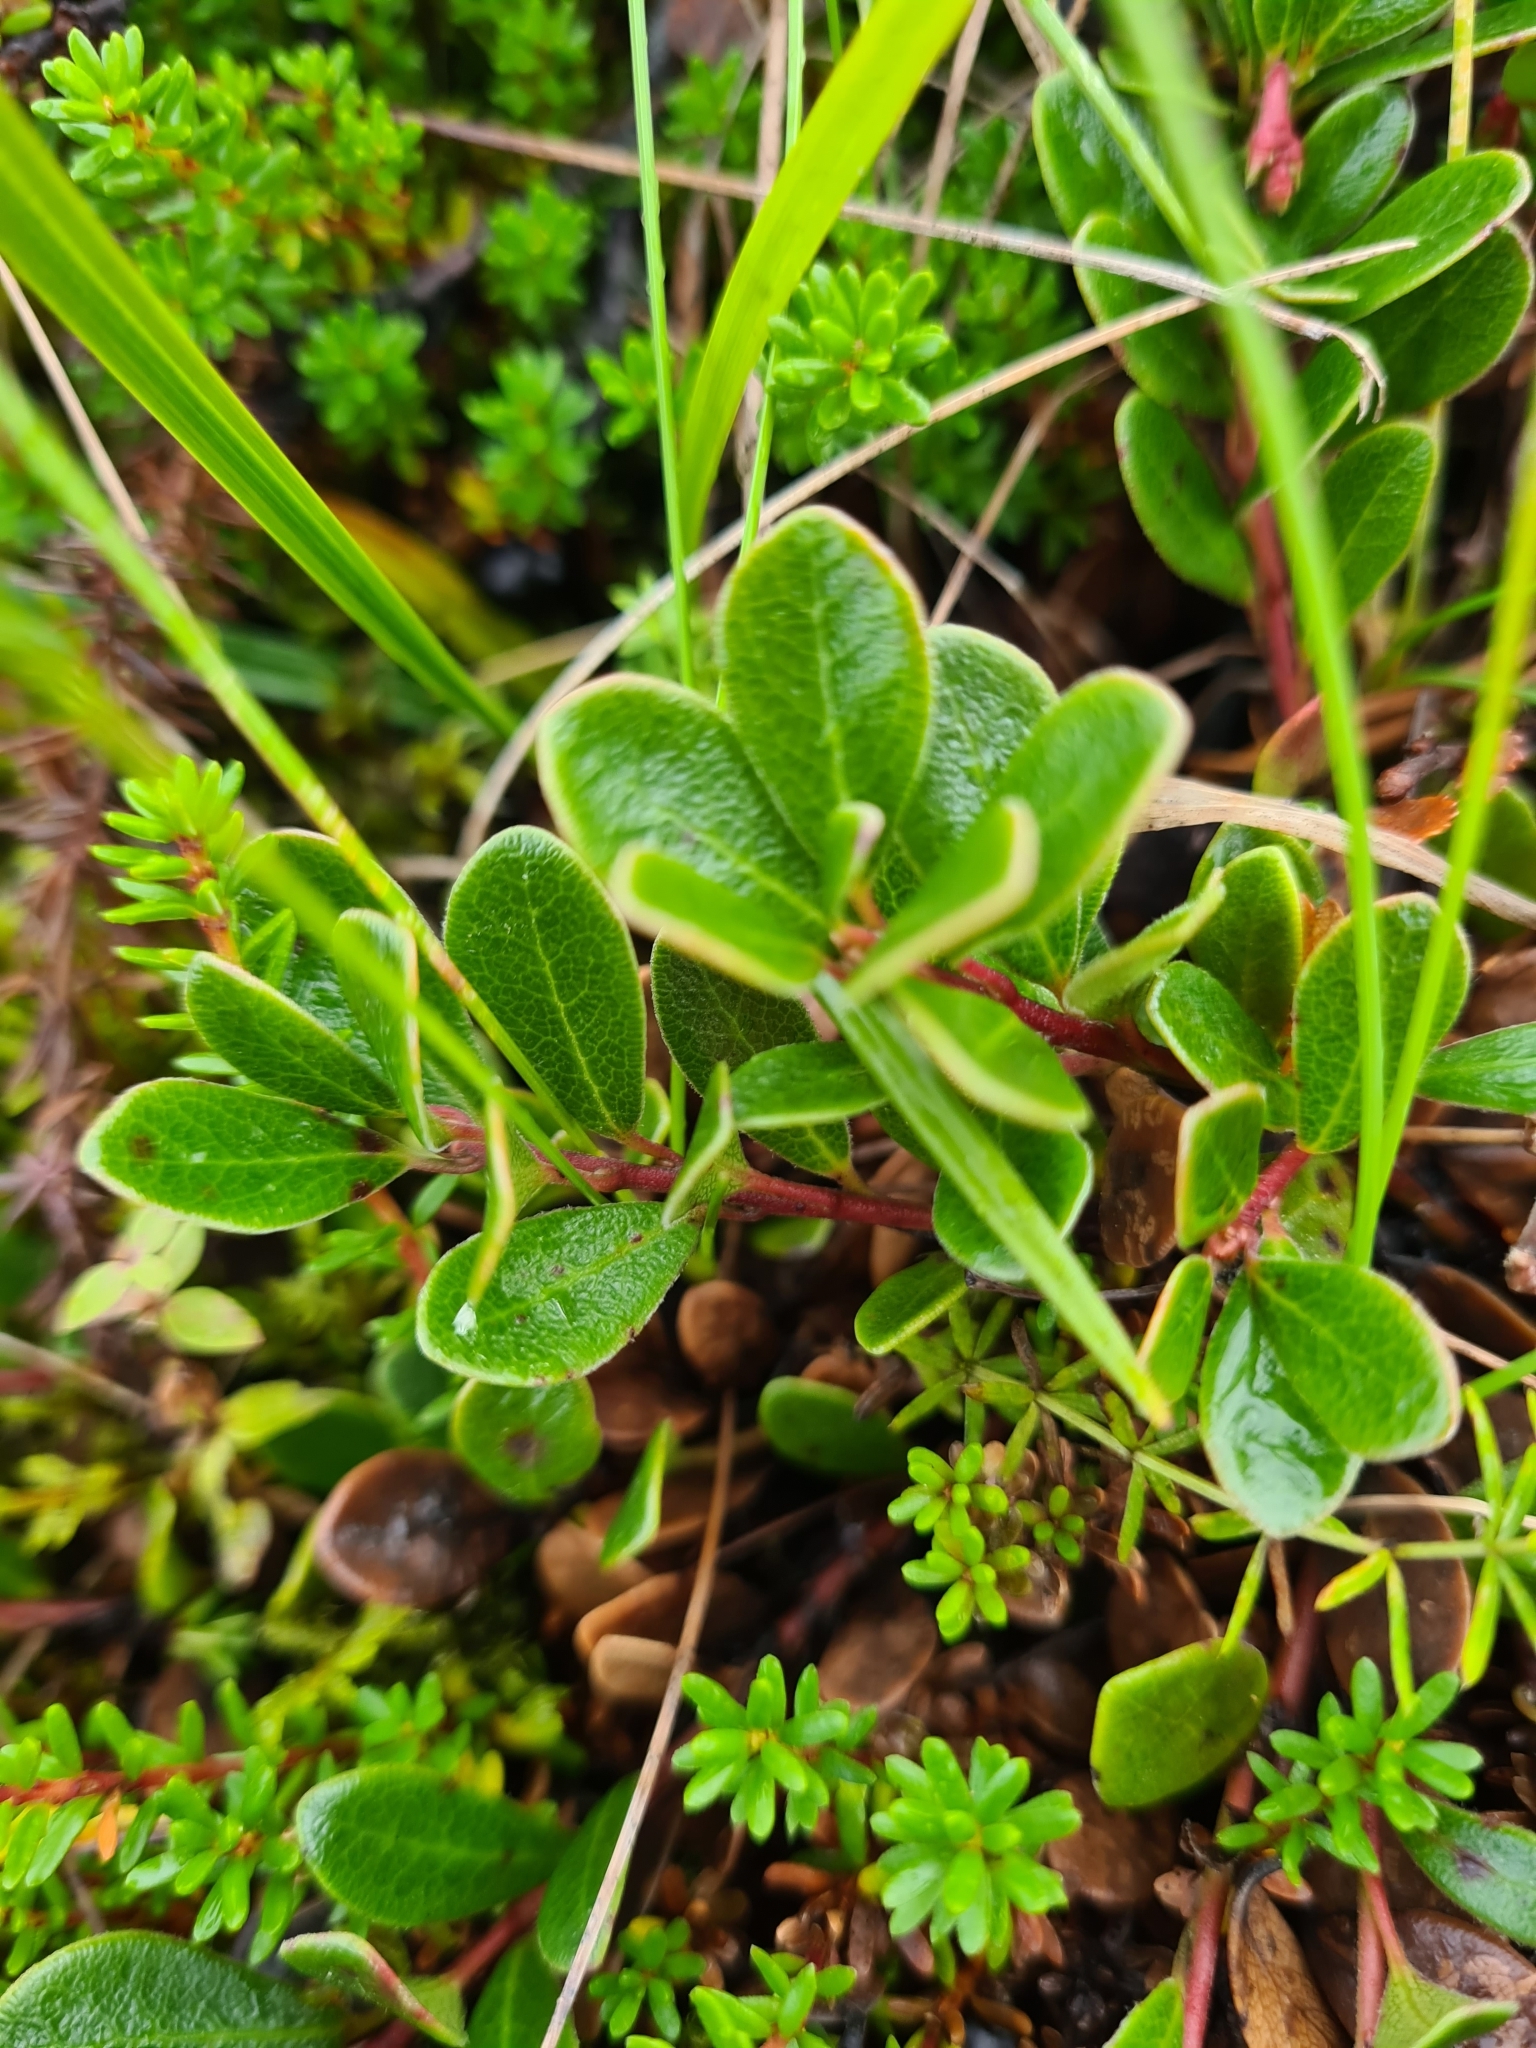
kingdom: Plantae
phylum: Tracheophyta
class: Magnoliopsida
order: Ericales
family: Ericaceae
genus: Arctostaphylos
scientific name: Arctostaphylos uva-ursi
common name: Bearberry
